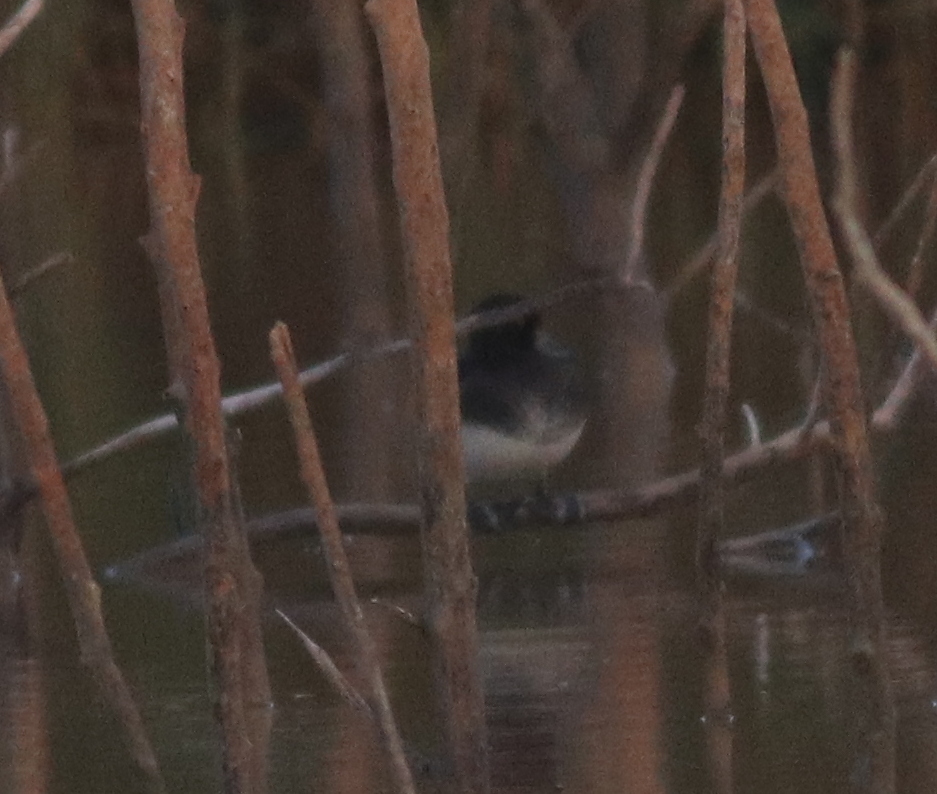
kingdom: Animalia
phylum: Chordata
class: Aves
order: Anseriformes
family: Anatidae
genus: Aythya
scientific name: Aythya fuligula
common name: Tufted duck
